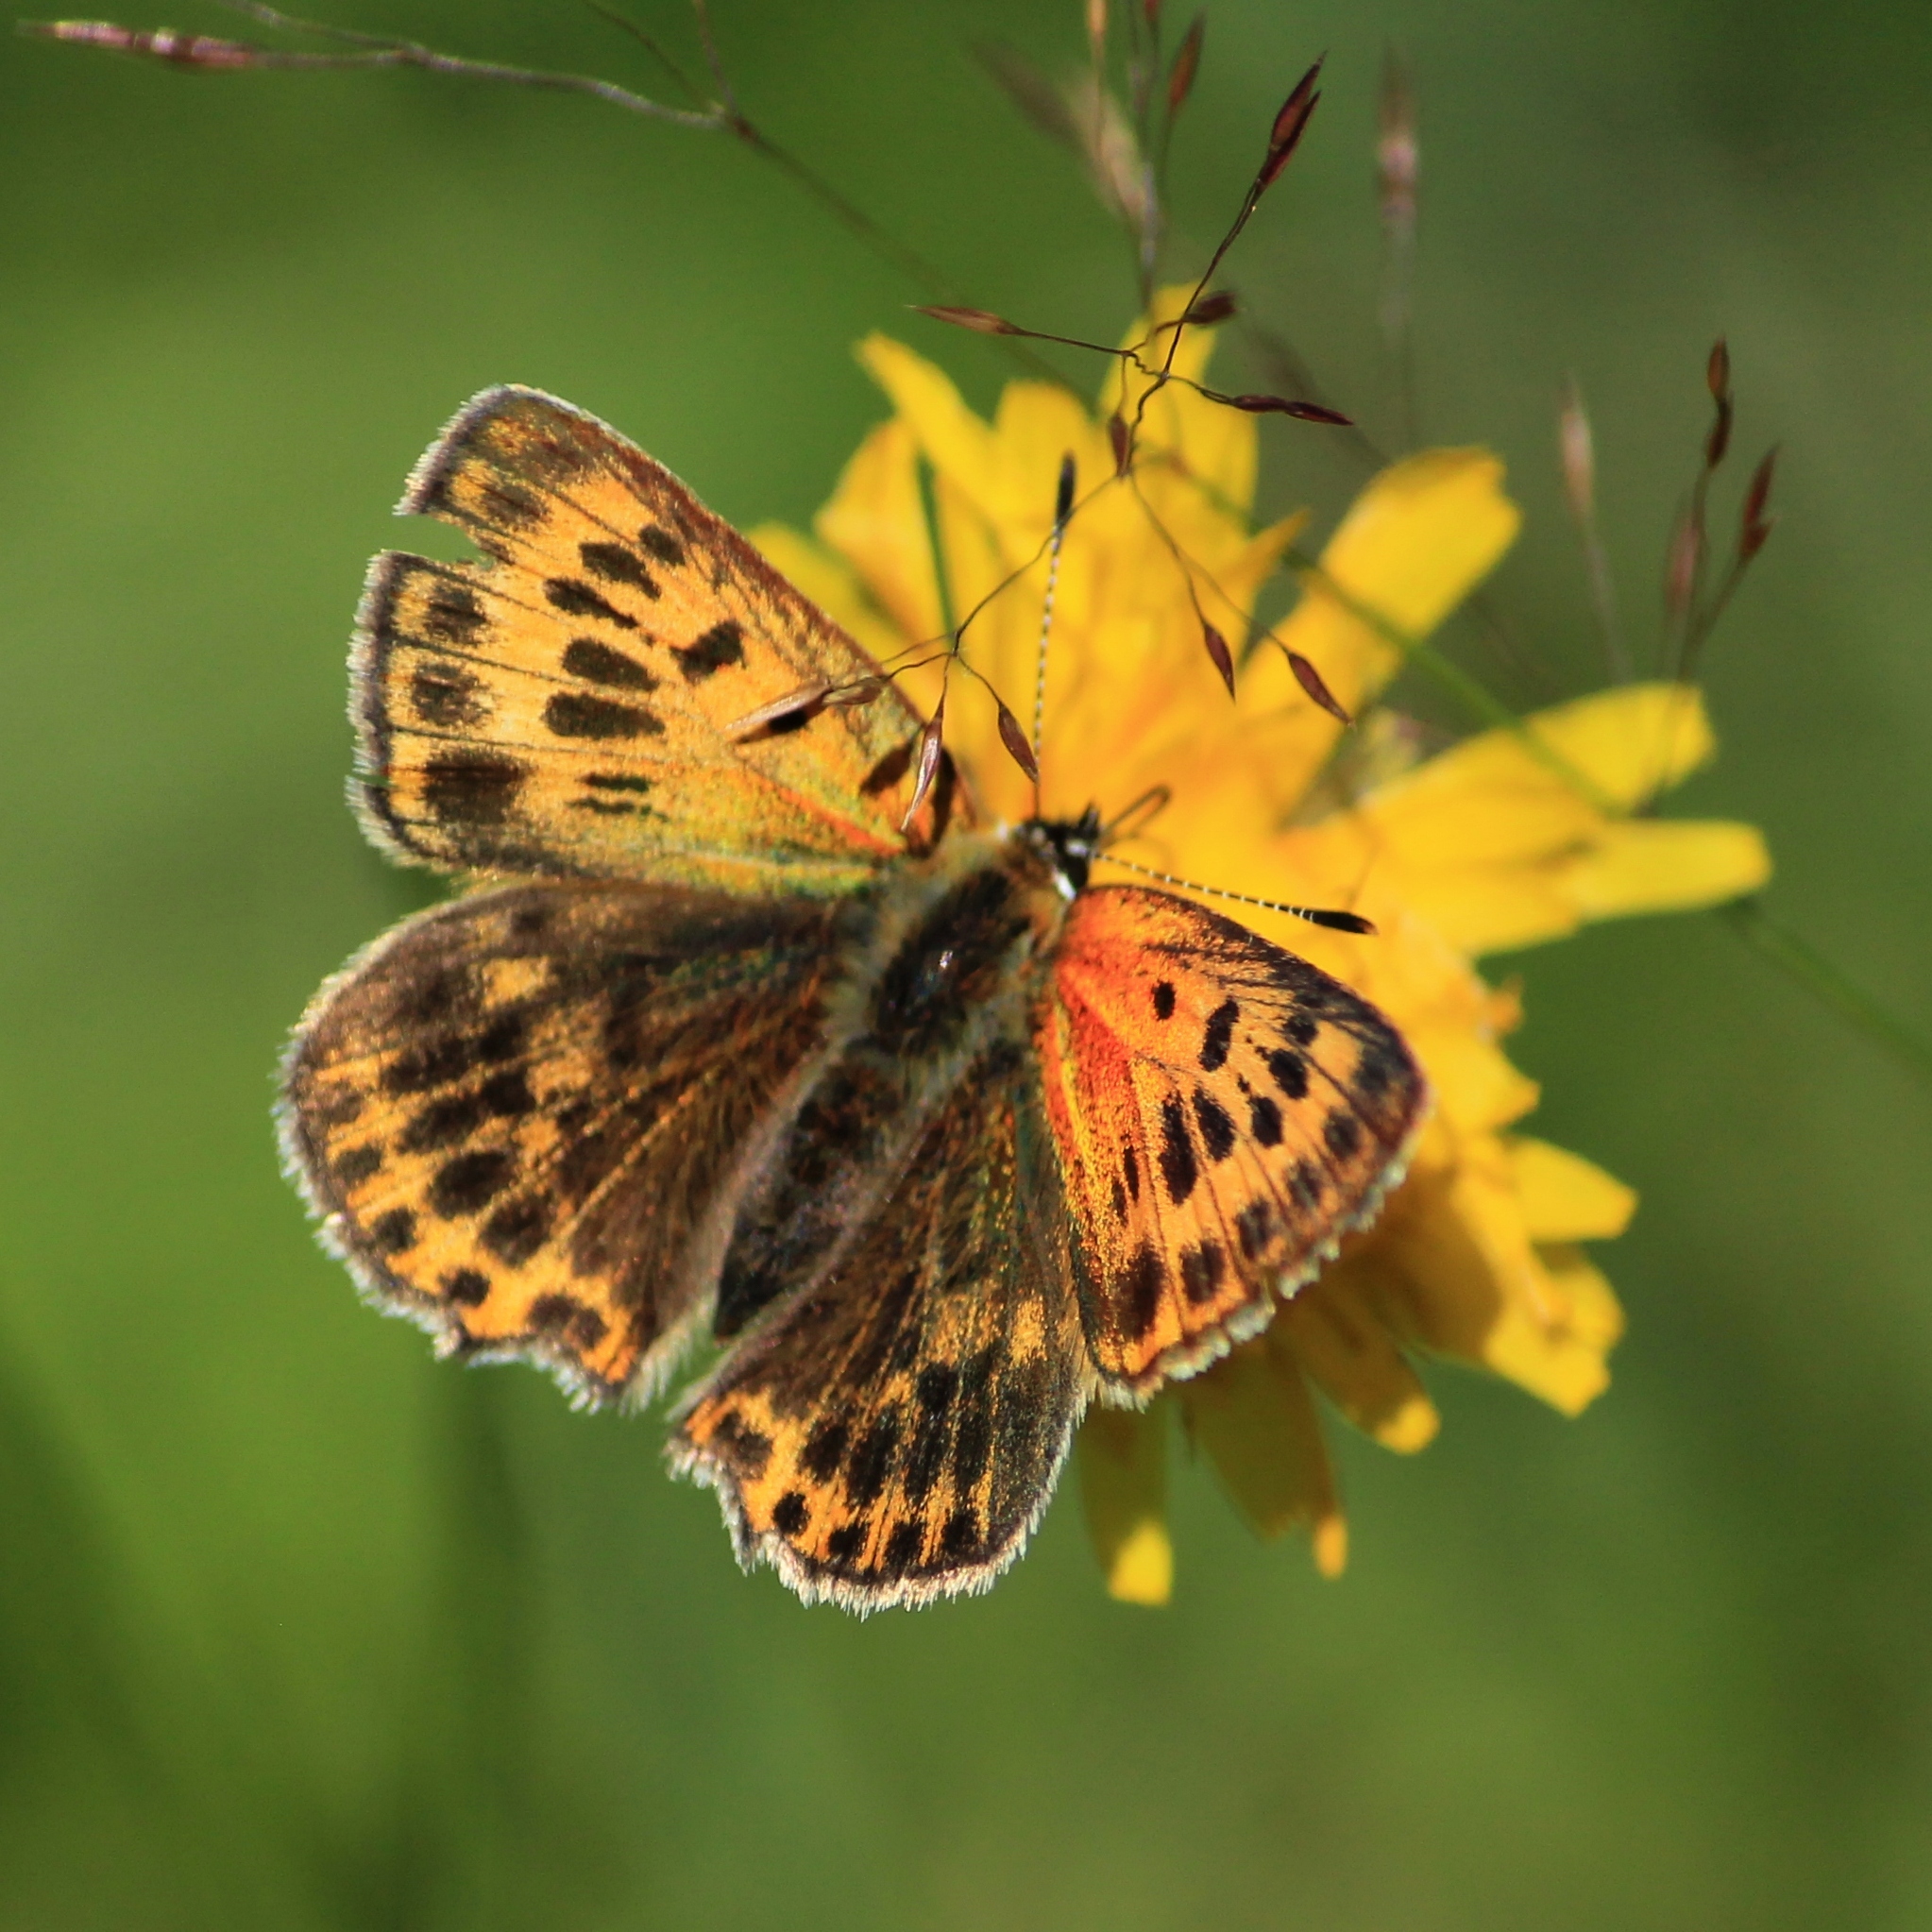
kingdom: Animalia
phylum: Arthropoda
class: Insecta
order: Lepidoptera
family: Lycaenidae
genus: Lycaena
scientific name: Lycaena virgaureae
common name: Scarce copper
